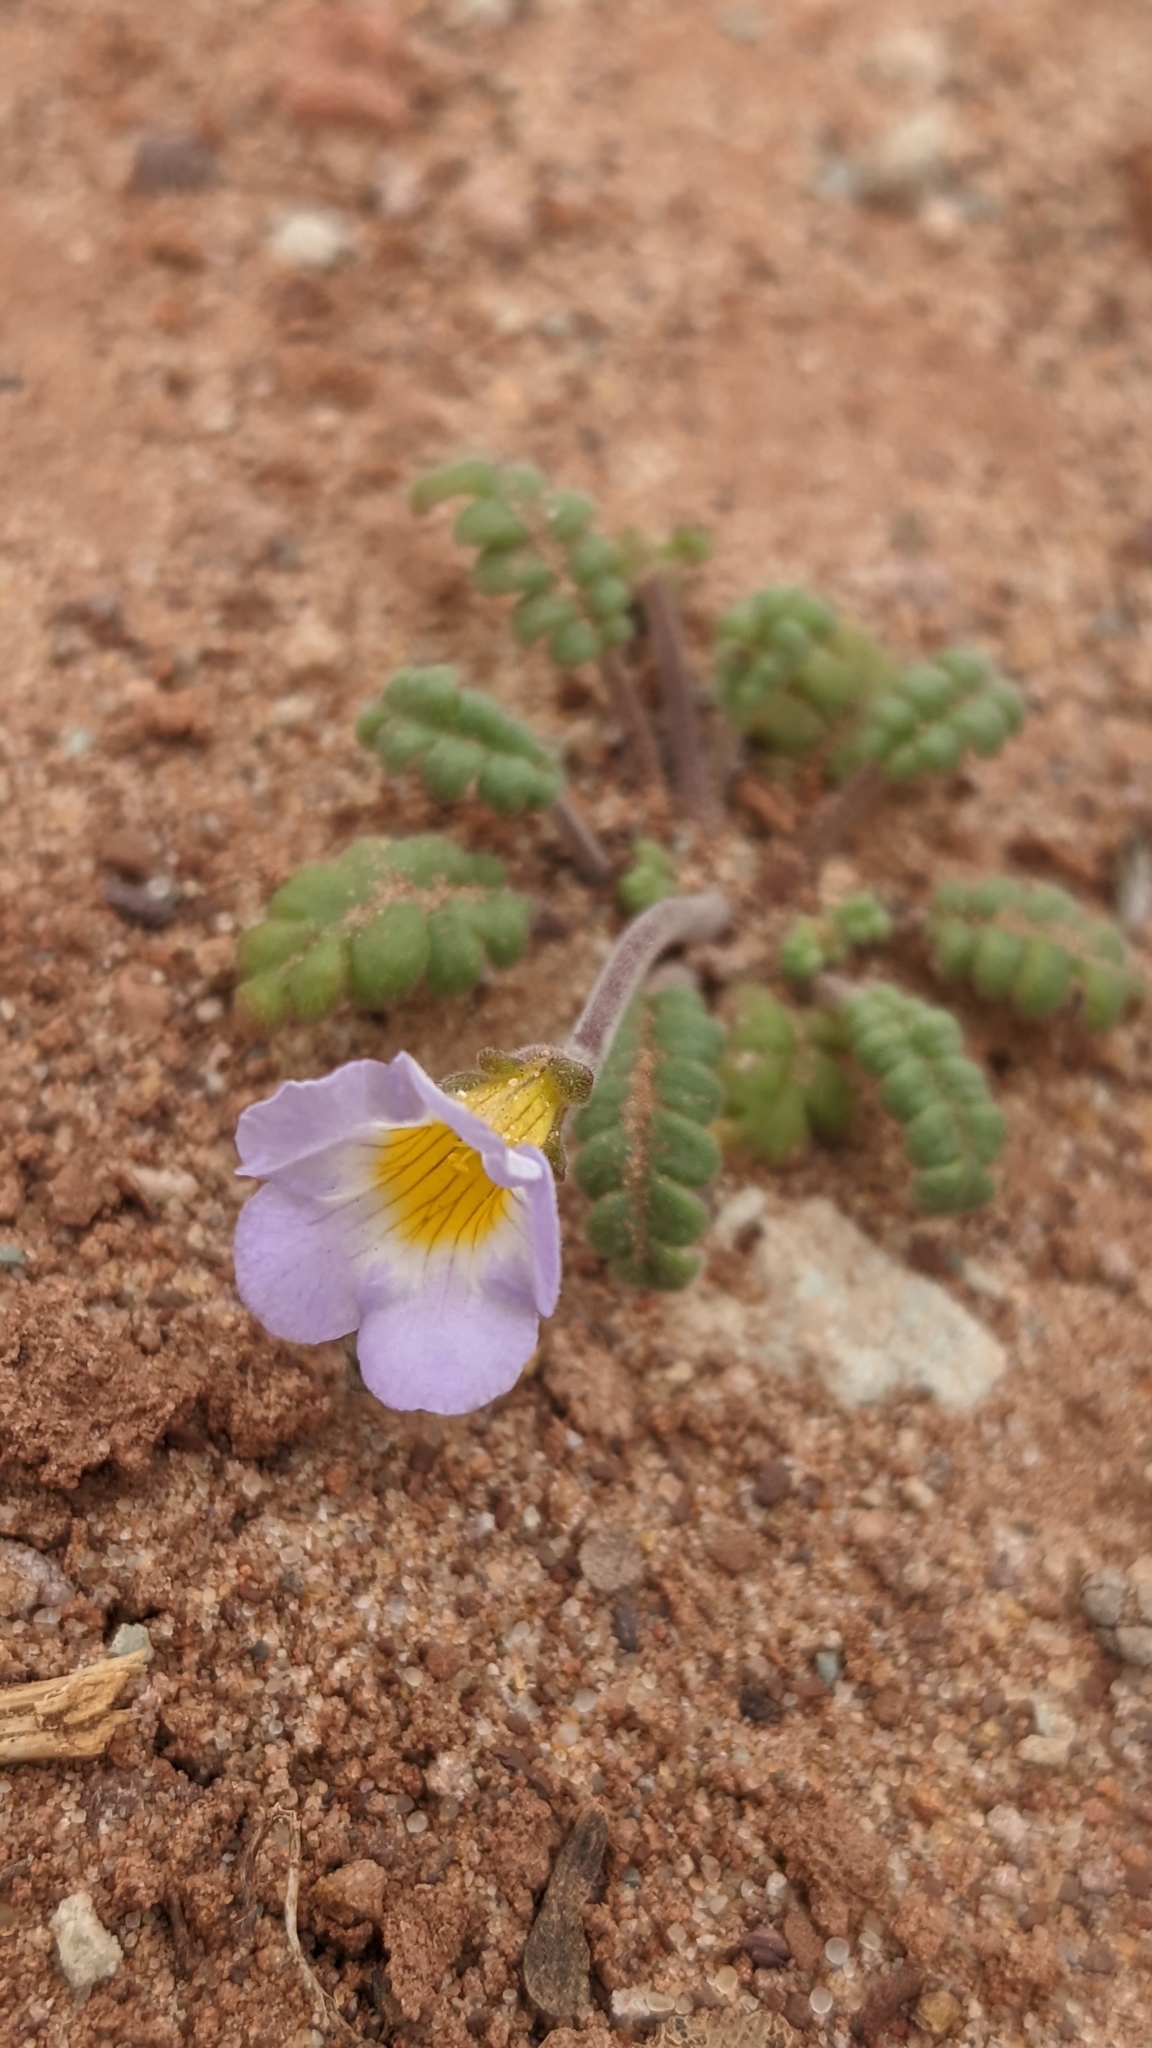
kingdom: Plantae
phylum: Tracheophyta
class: Magnoliopsida
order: Boraginales
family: Hydrophyllaceae
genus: Phacelia
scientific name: Phacelia fremontii
